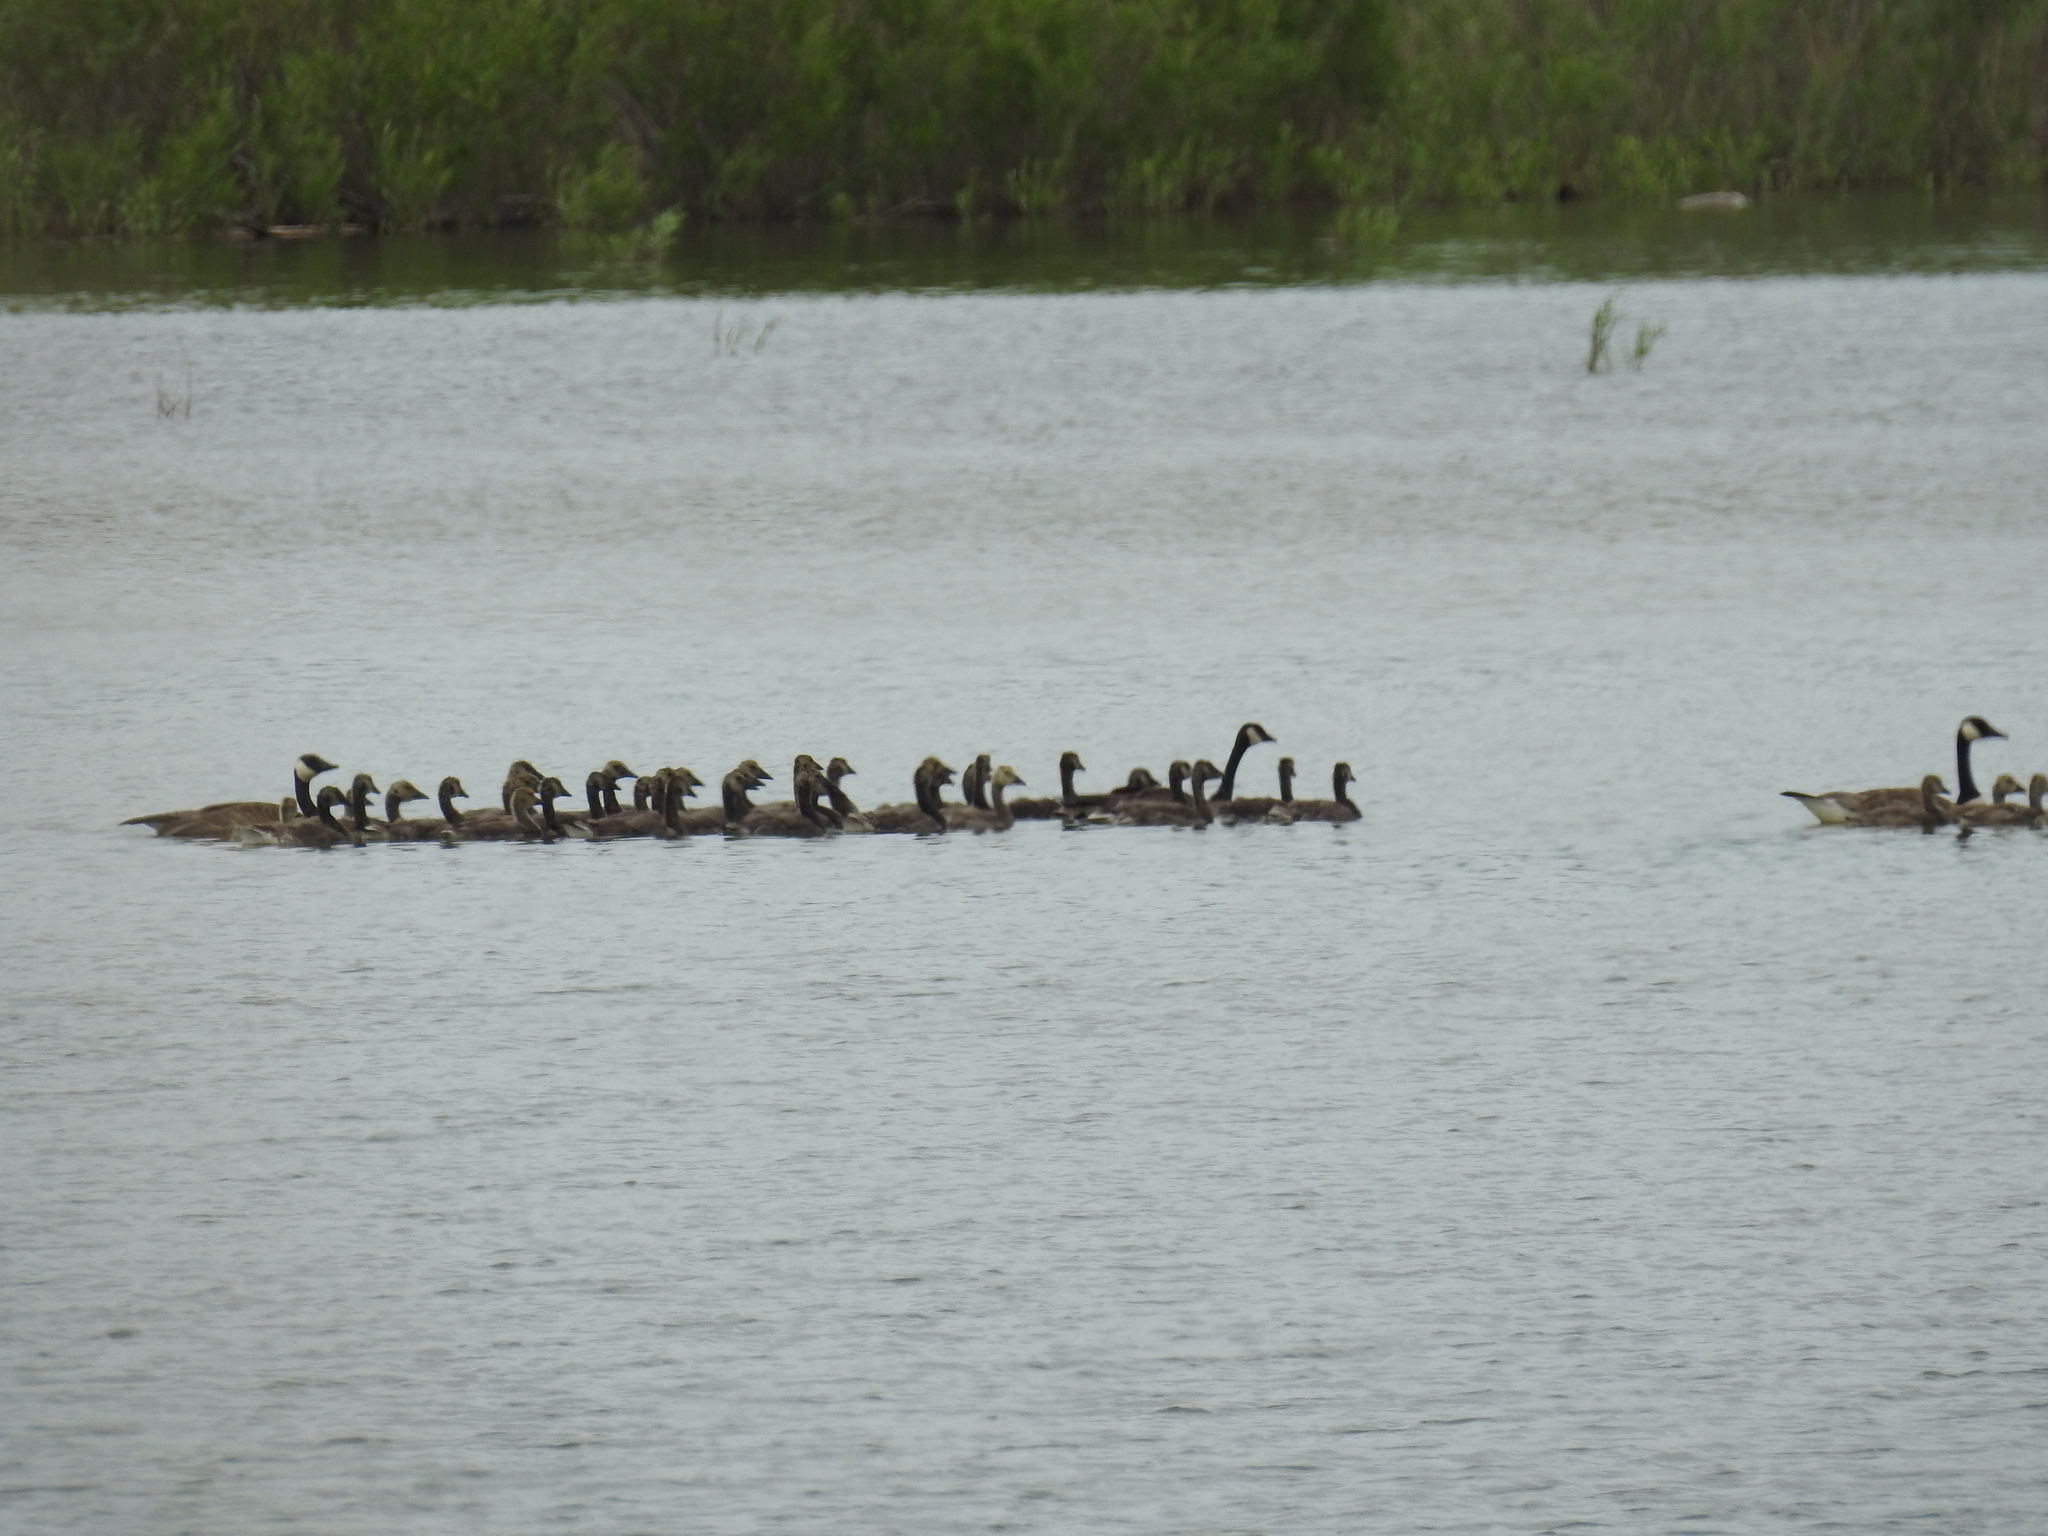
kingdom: Animalia
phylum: Chordata
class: Aves
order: Anseriformes
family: Anatidae
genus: Branta
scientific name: Branta canadensis
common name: Canada goose
